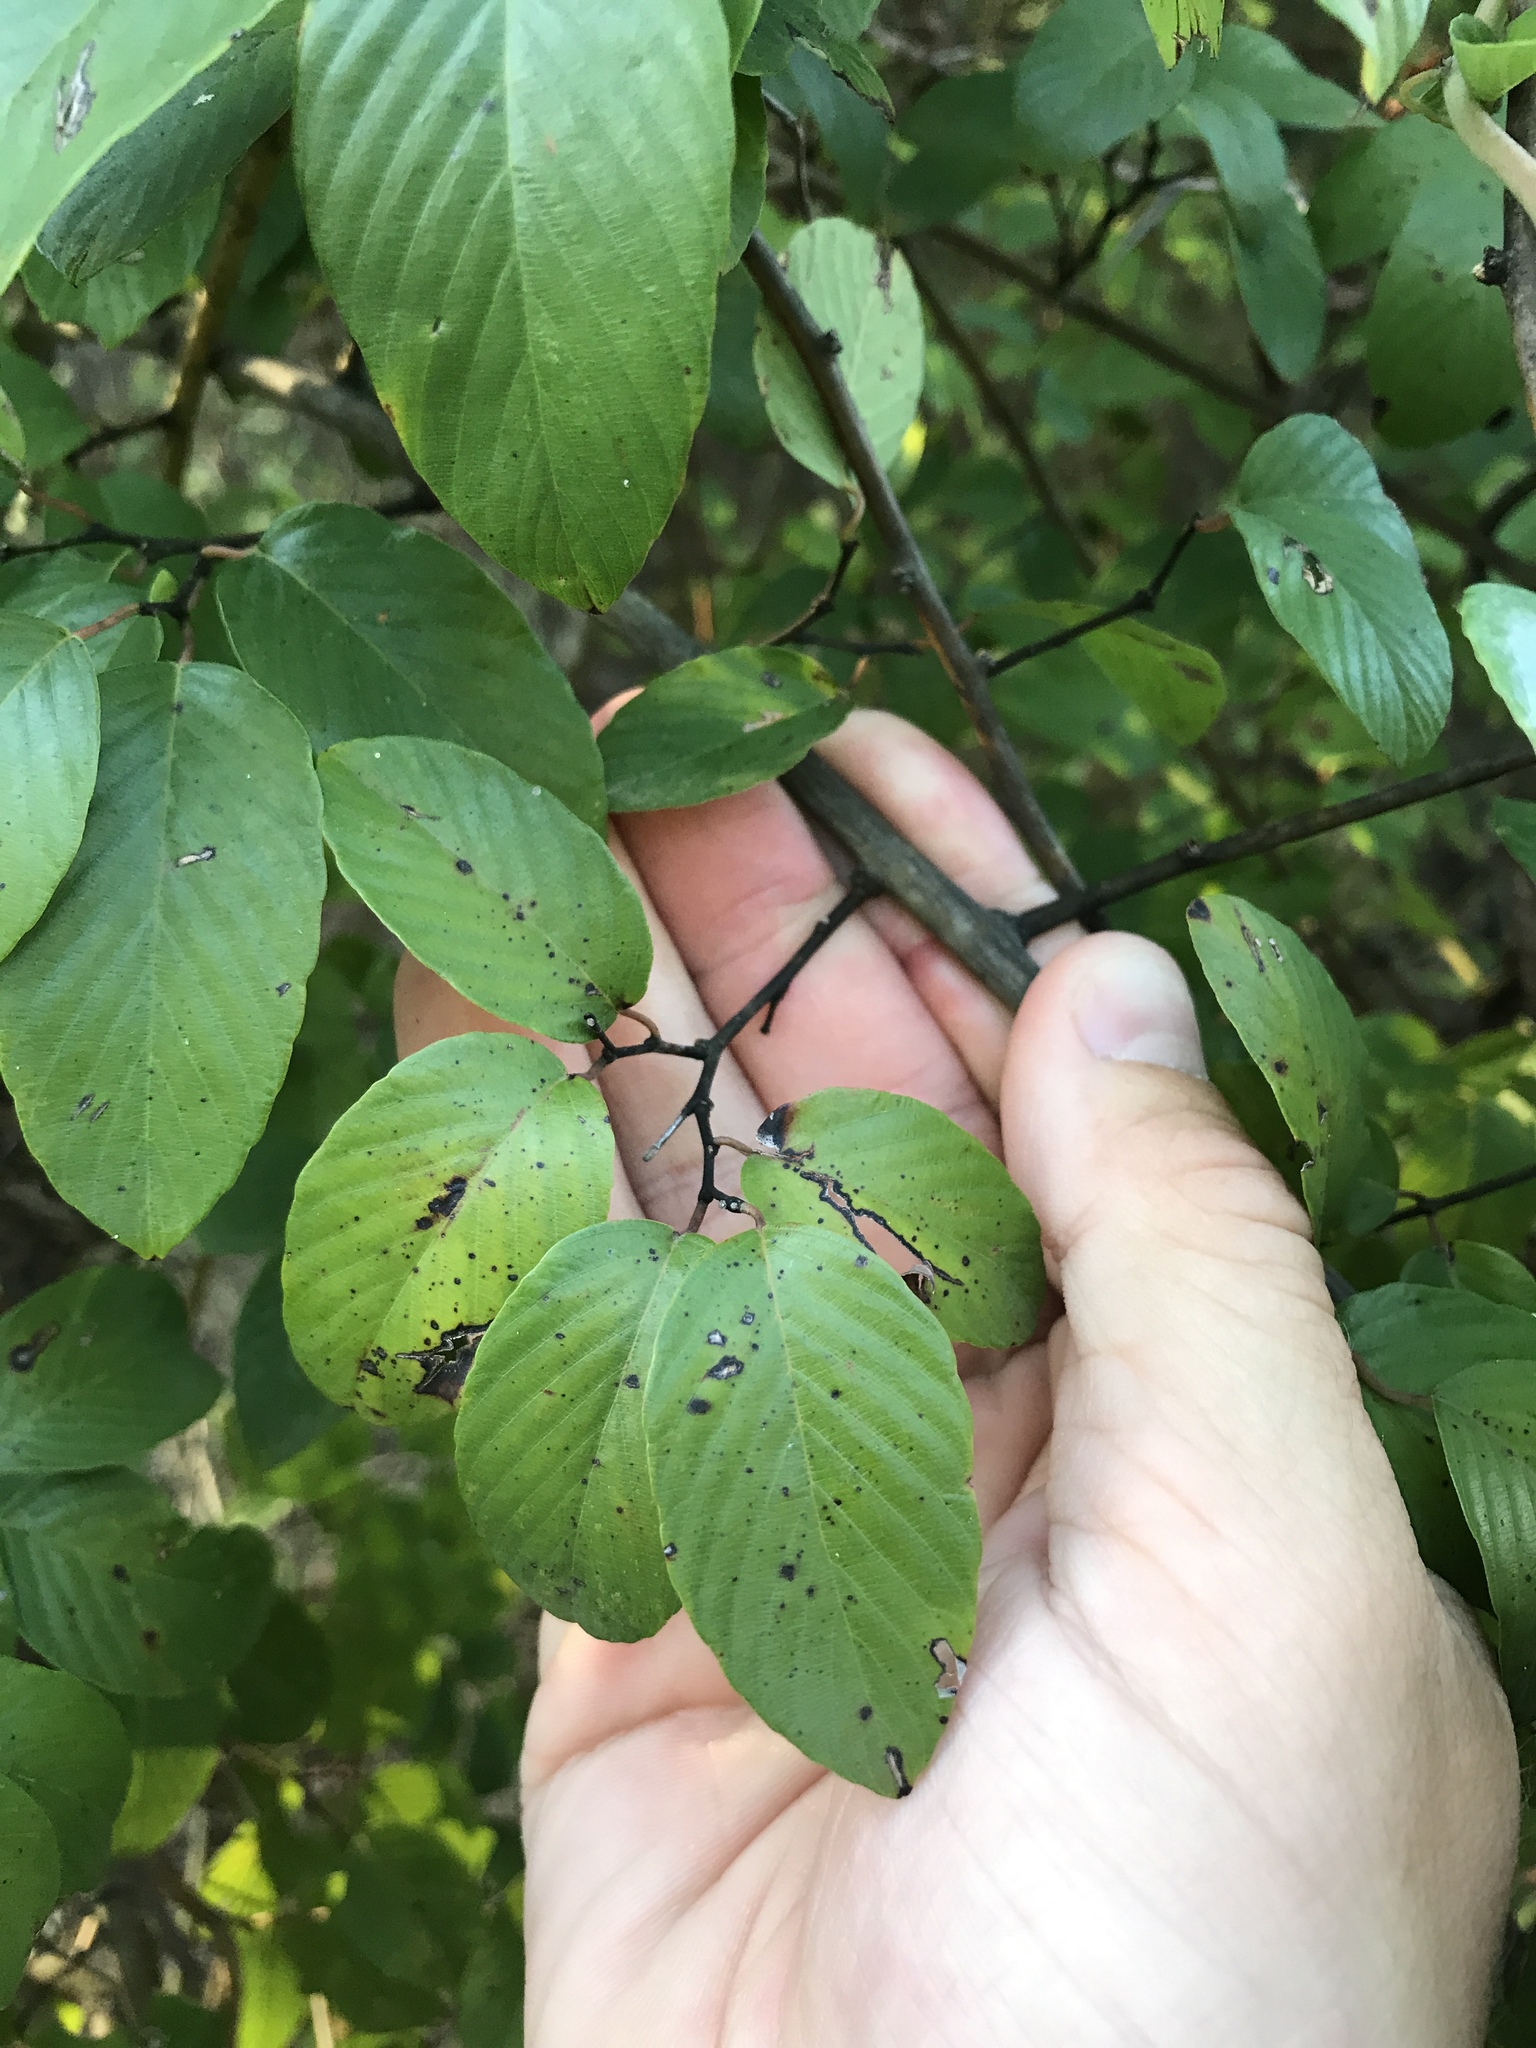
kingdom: Plantae
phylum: Tracheophyta
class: Magnoliopsida
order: Rosales
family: Rhamnaceae
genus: Berchemia
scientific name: Berchemia scandens
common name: Supplejack
